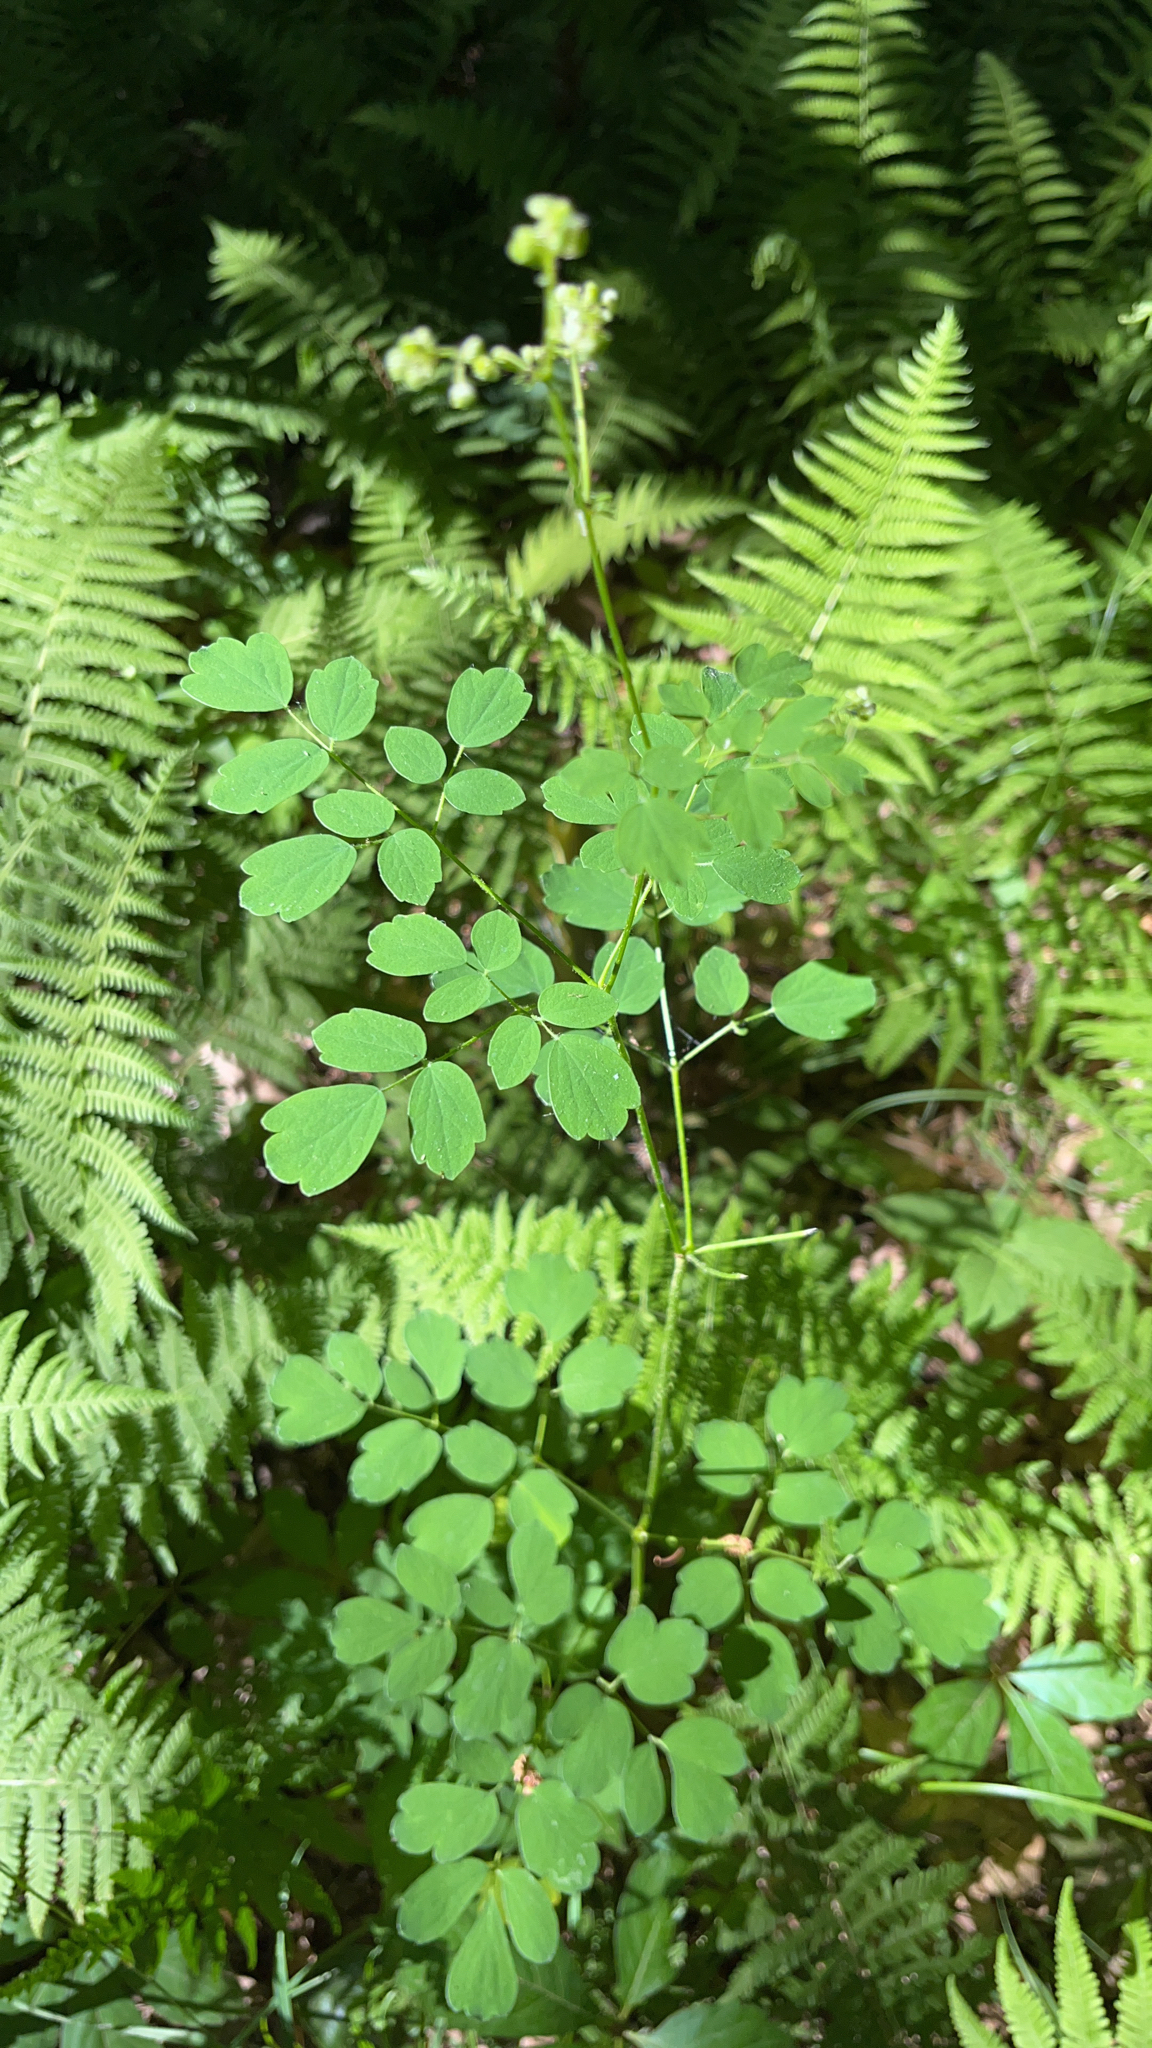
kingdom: Plantae
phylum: Tracheophyta
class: Magnoliopsida
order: Ranunculales
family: Ranunculaceae
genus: Thalictrum
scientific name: Thalictrum pubescens
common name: King-of-the-meadow
